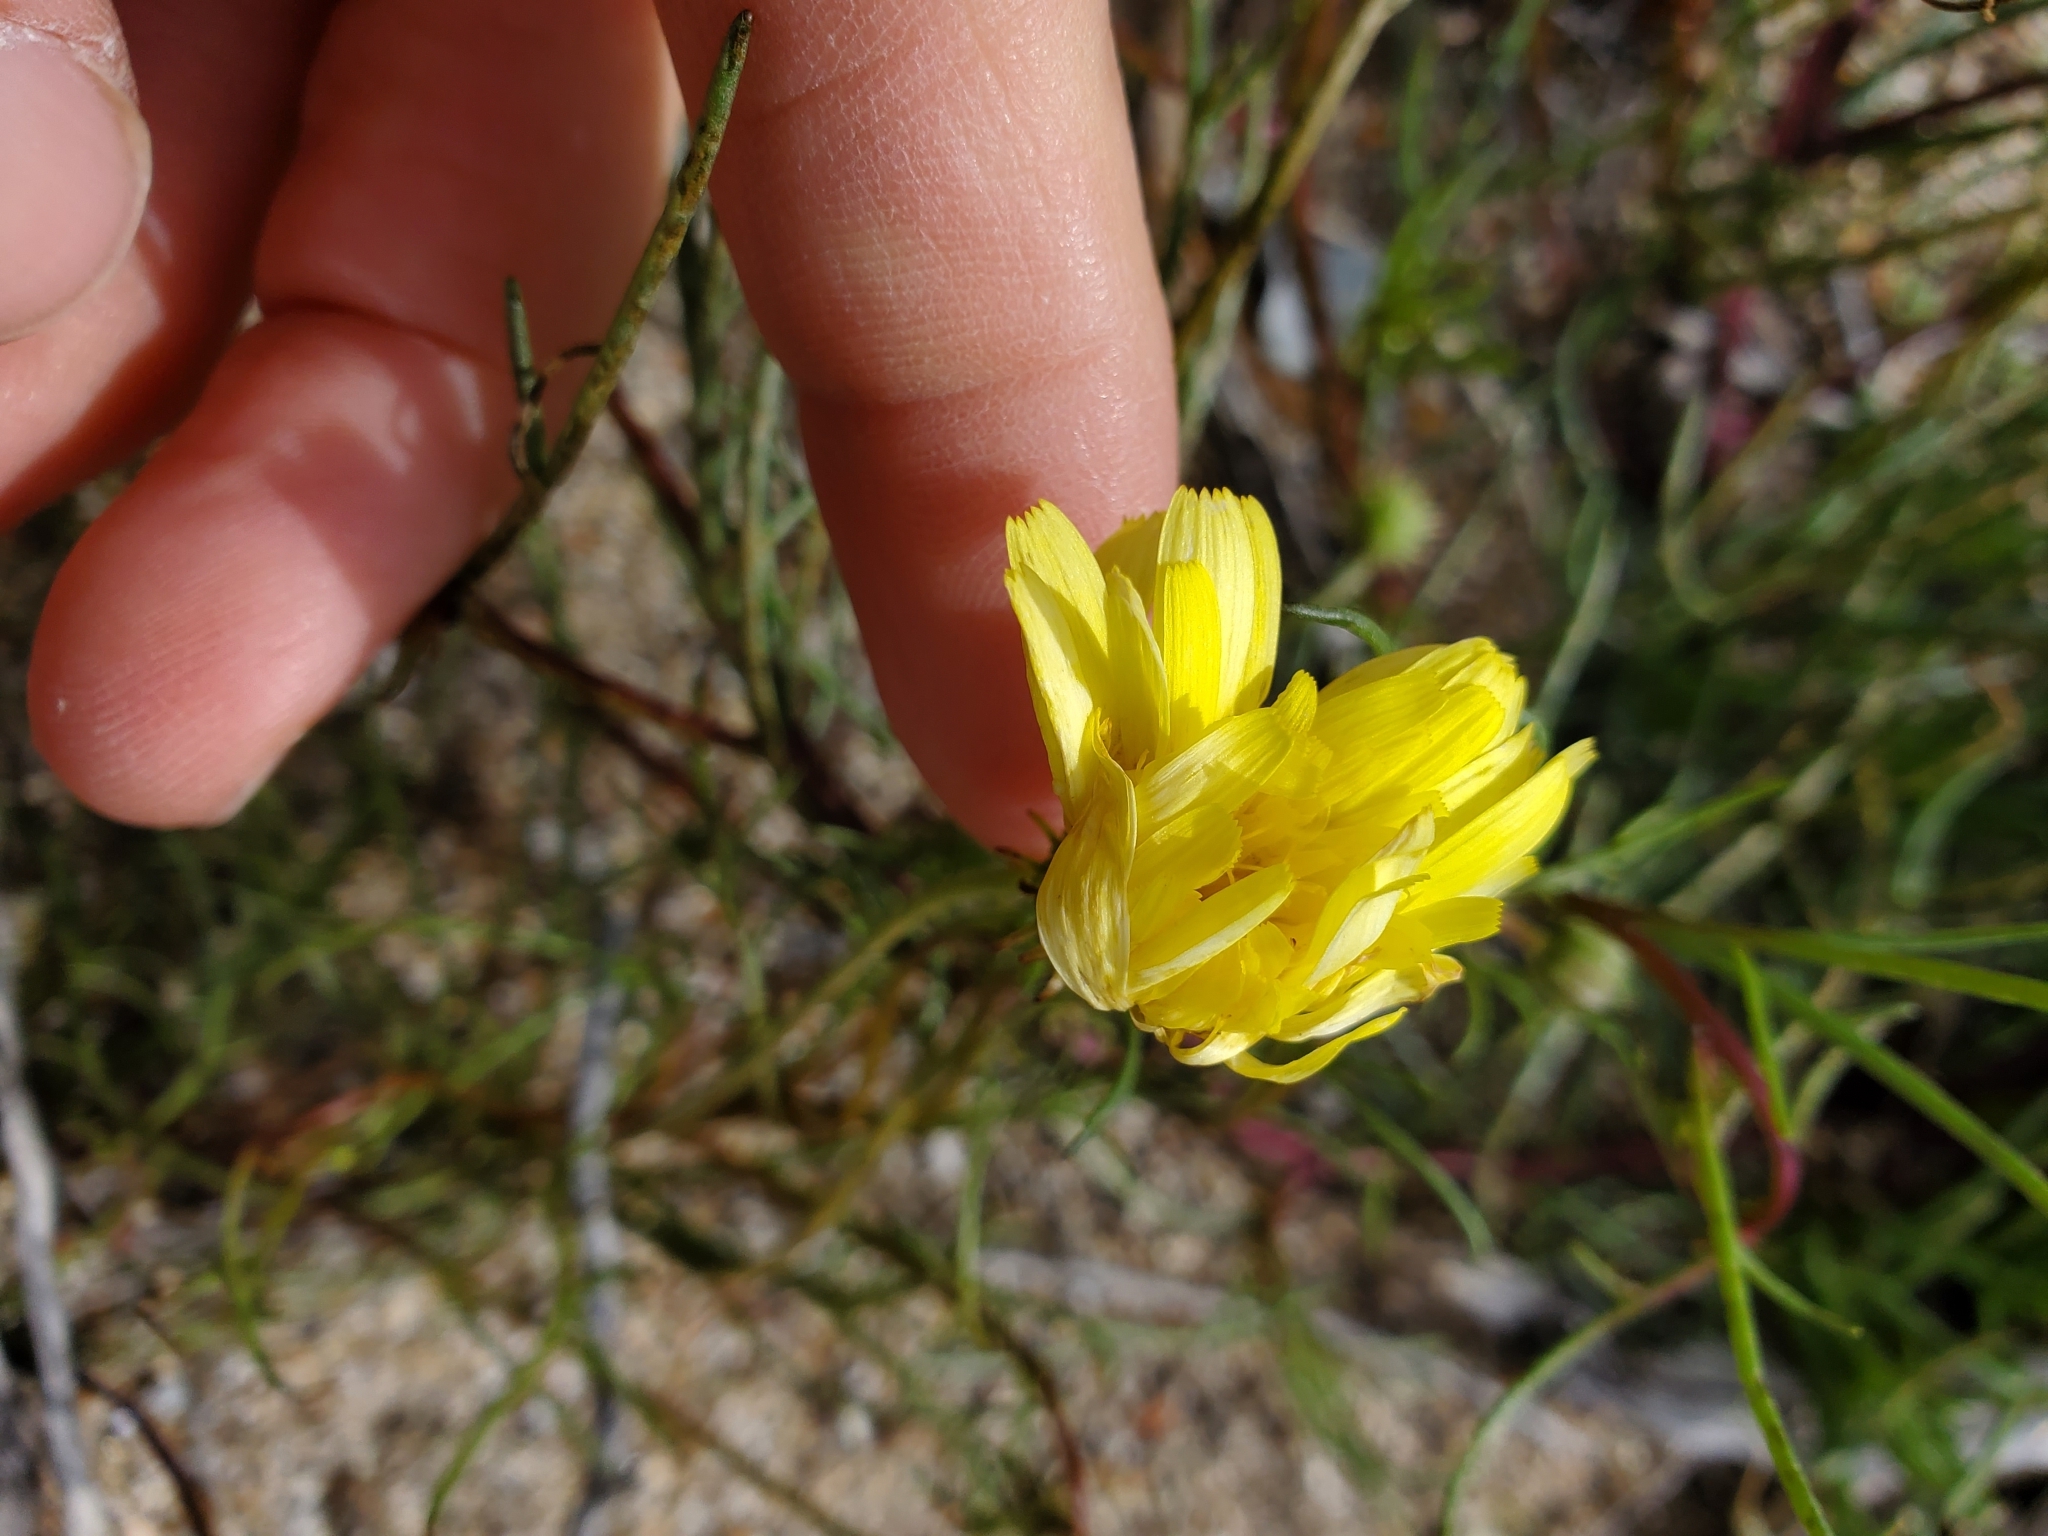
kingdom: Plantae
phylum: Tracheophyta
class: Magnoliopsida
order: Asterales
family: Asteraceae
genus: Malacothrix
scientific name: Malacothrix glabrata
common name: Smooth desert-dandelion
